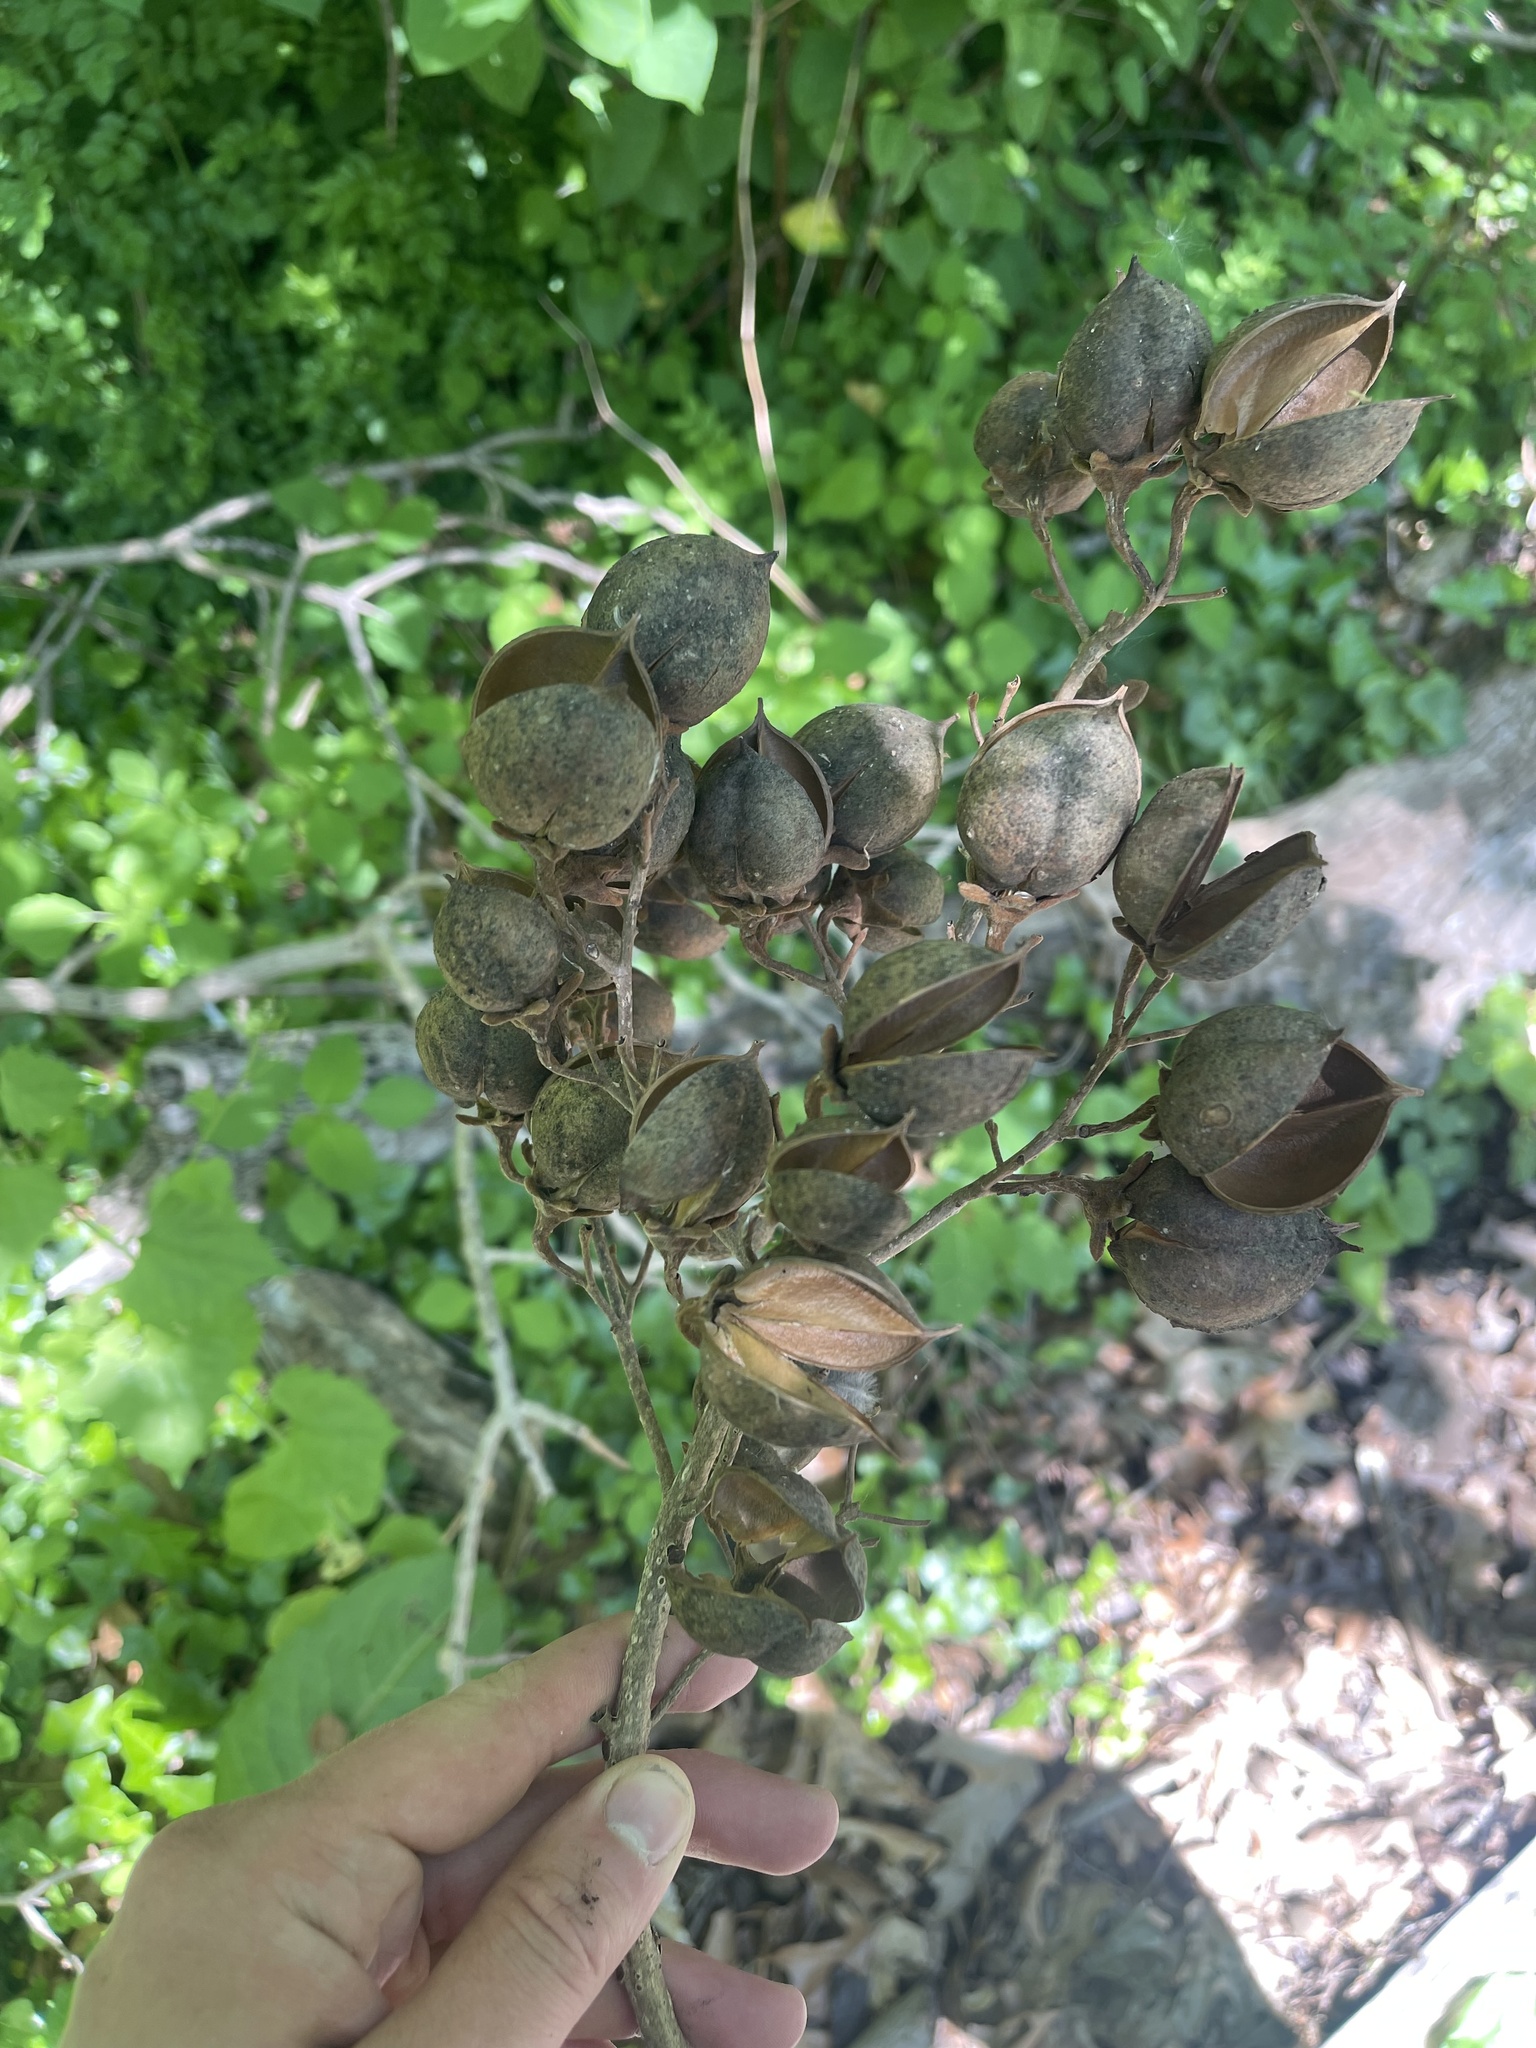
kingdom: Plantae
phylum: Tracheophyta
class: Magnoliopsida
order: Lamiales
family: Paulowniaceae
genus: Paulownia
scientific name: Paulownia tomentosa
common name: Foxglove-tree
